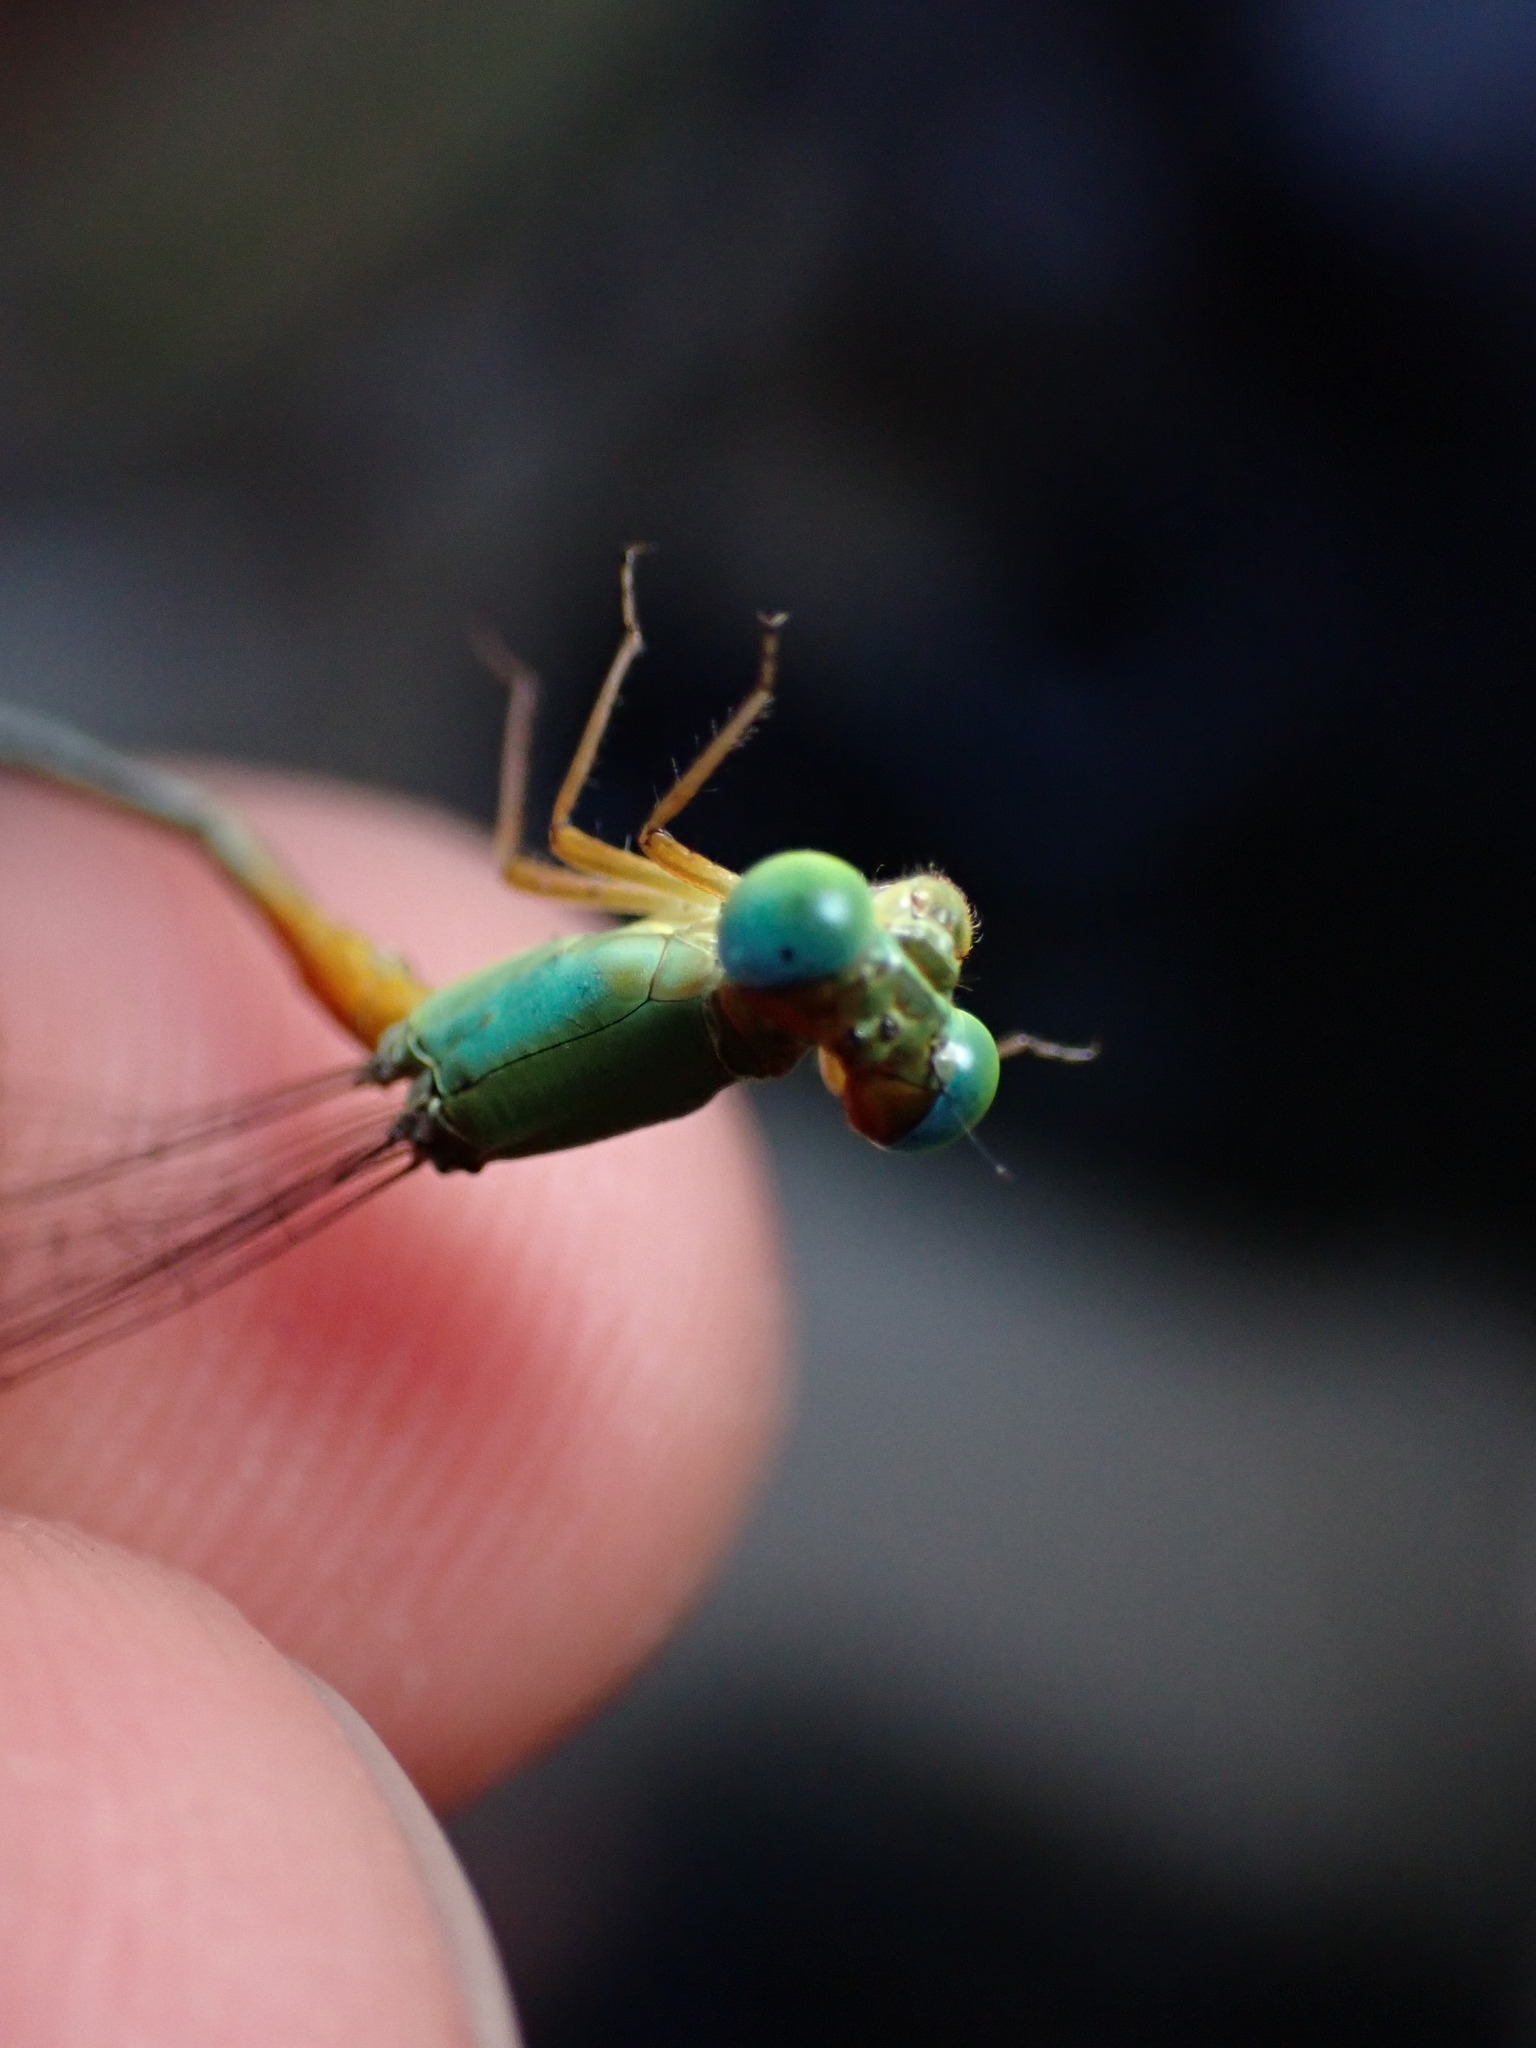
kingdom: Animalia
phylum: Arthropoda
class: Insecta
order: Odonata
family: Coenagrionidae
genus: Ceriagrion
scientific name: Ceriagrion cerinorubellum
